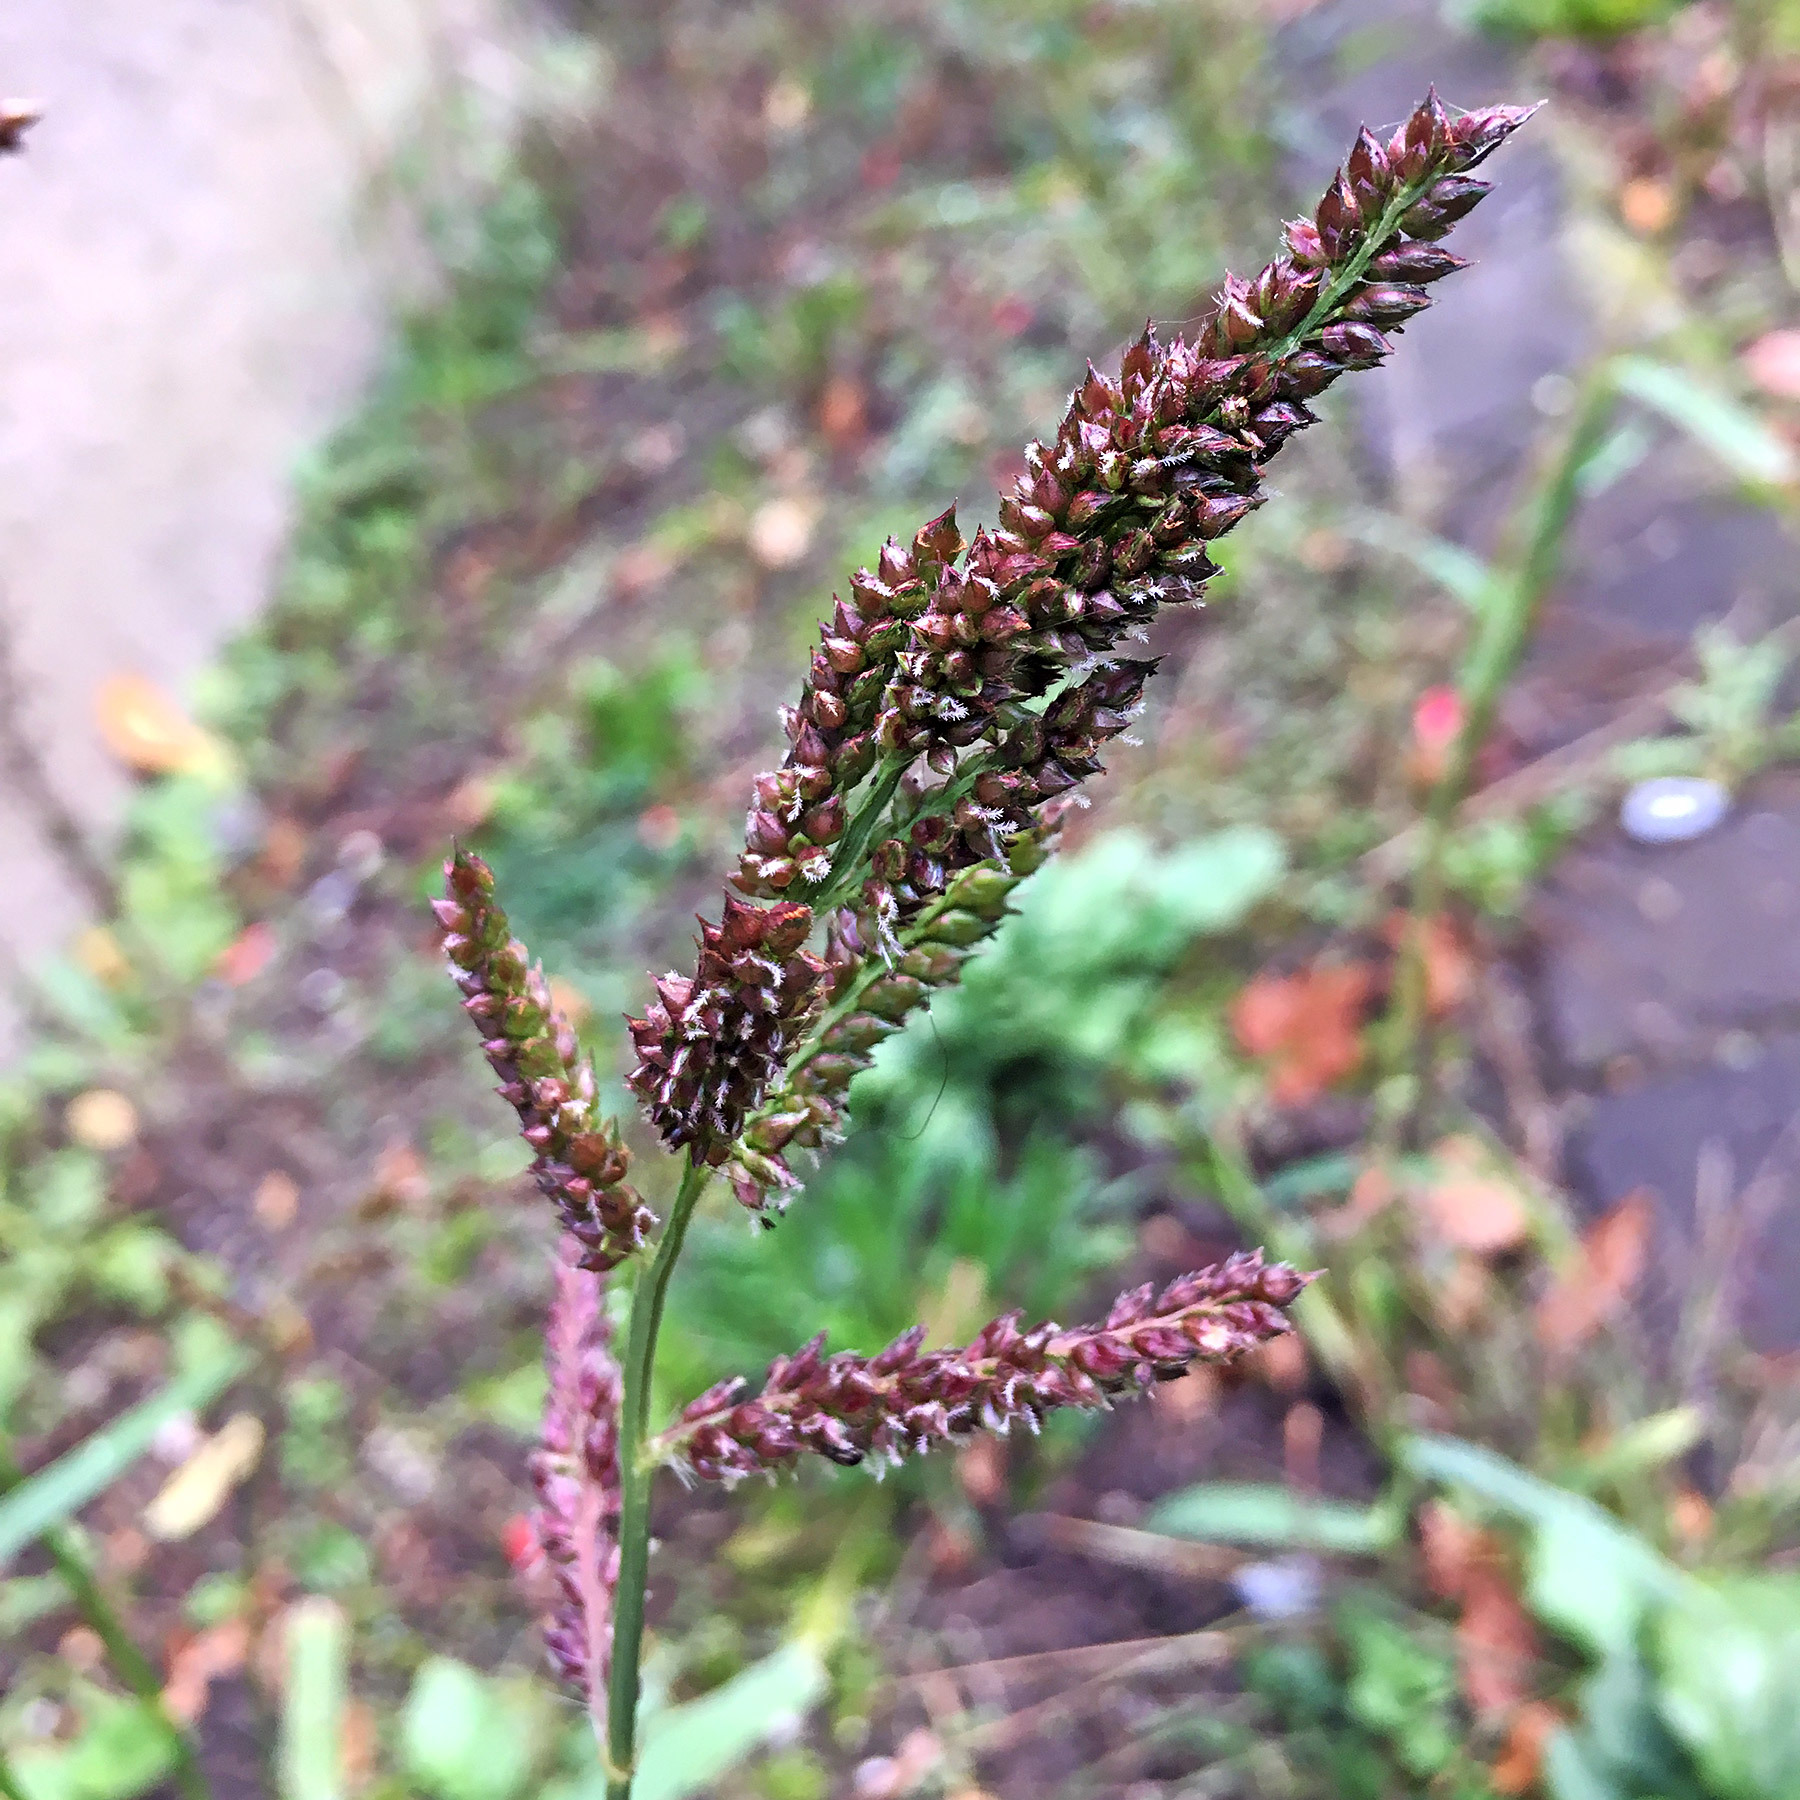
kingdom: Plantae
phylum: Tracheophyta
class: Liliopsida
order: Poales
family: Poaceae
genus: Echinochloa
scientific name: Echinochloa crus-galli
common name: Cockspur
